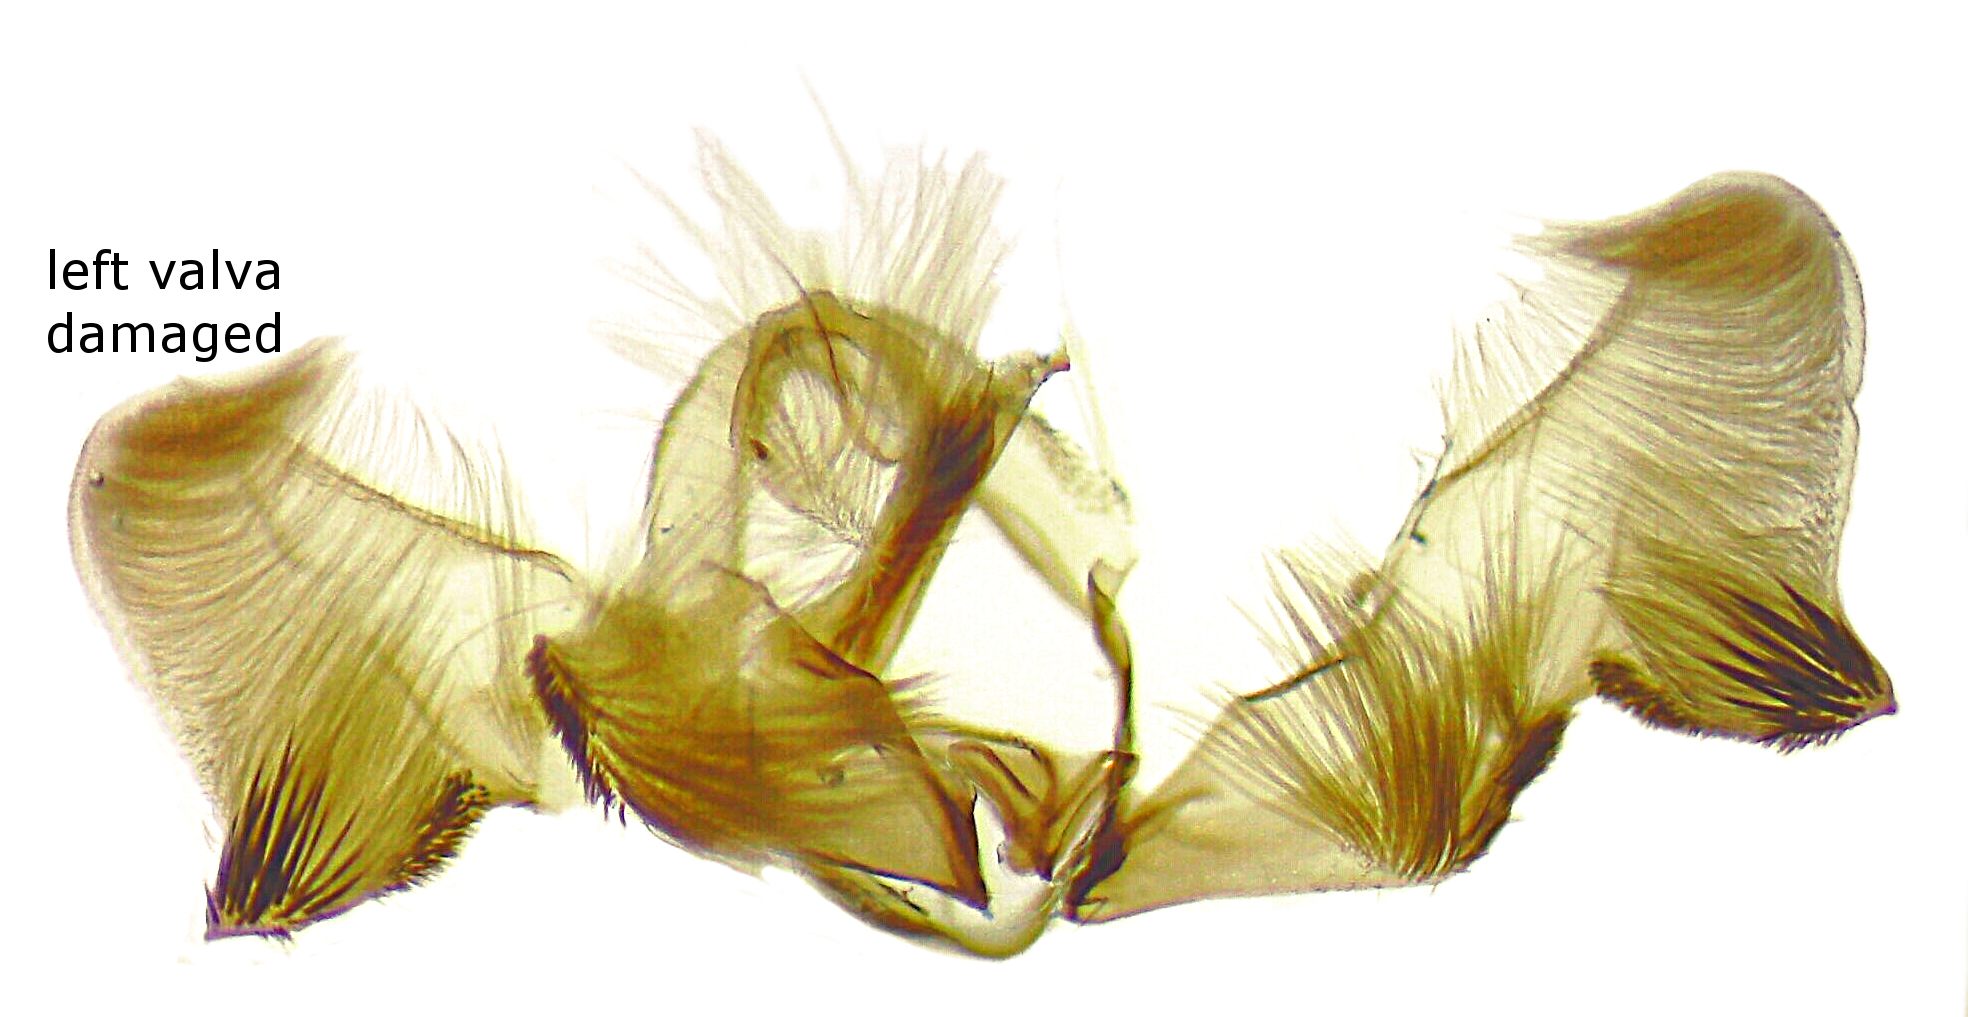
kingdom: Animalia
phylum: Arthropoda
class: Insecta
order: Lepidoptera
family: Tortricidae
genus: Pseudexentera
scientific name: Pseudexentera spoliana
